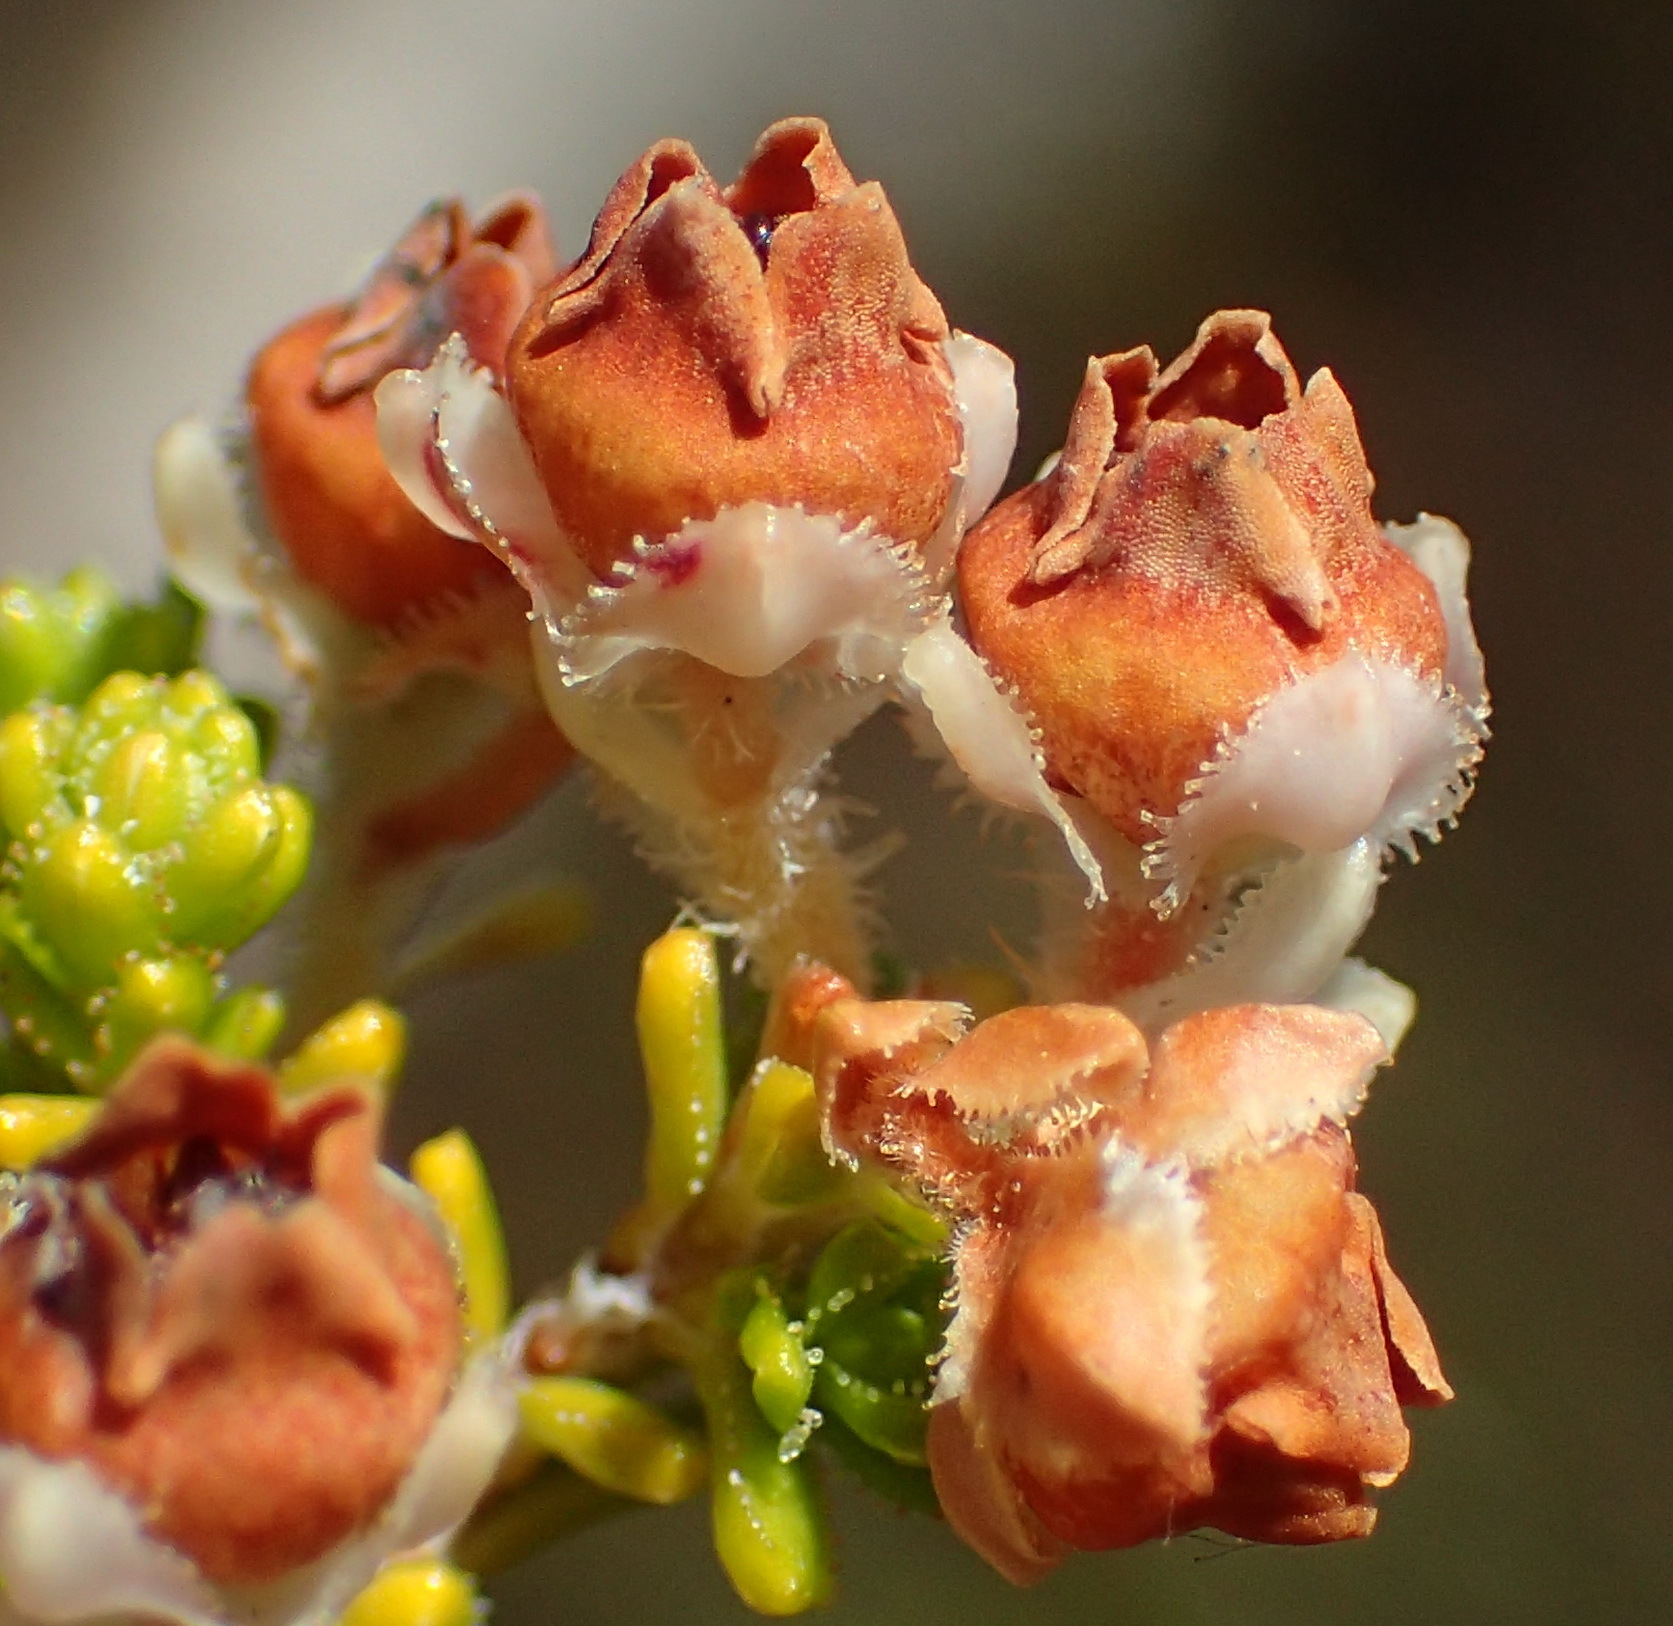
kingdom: Plantae
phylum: Tracheophyta
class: Magnoliopsida
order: Ericales
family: Ericaceae
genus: Erica
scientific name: Erica fimbriata
